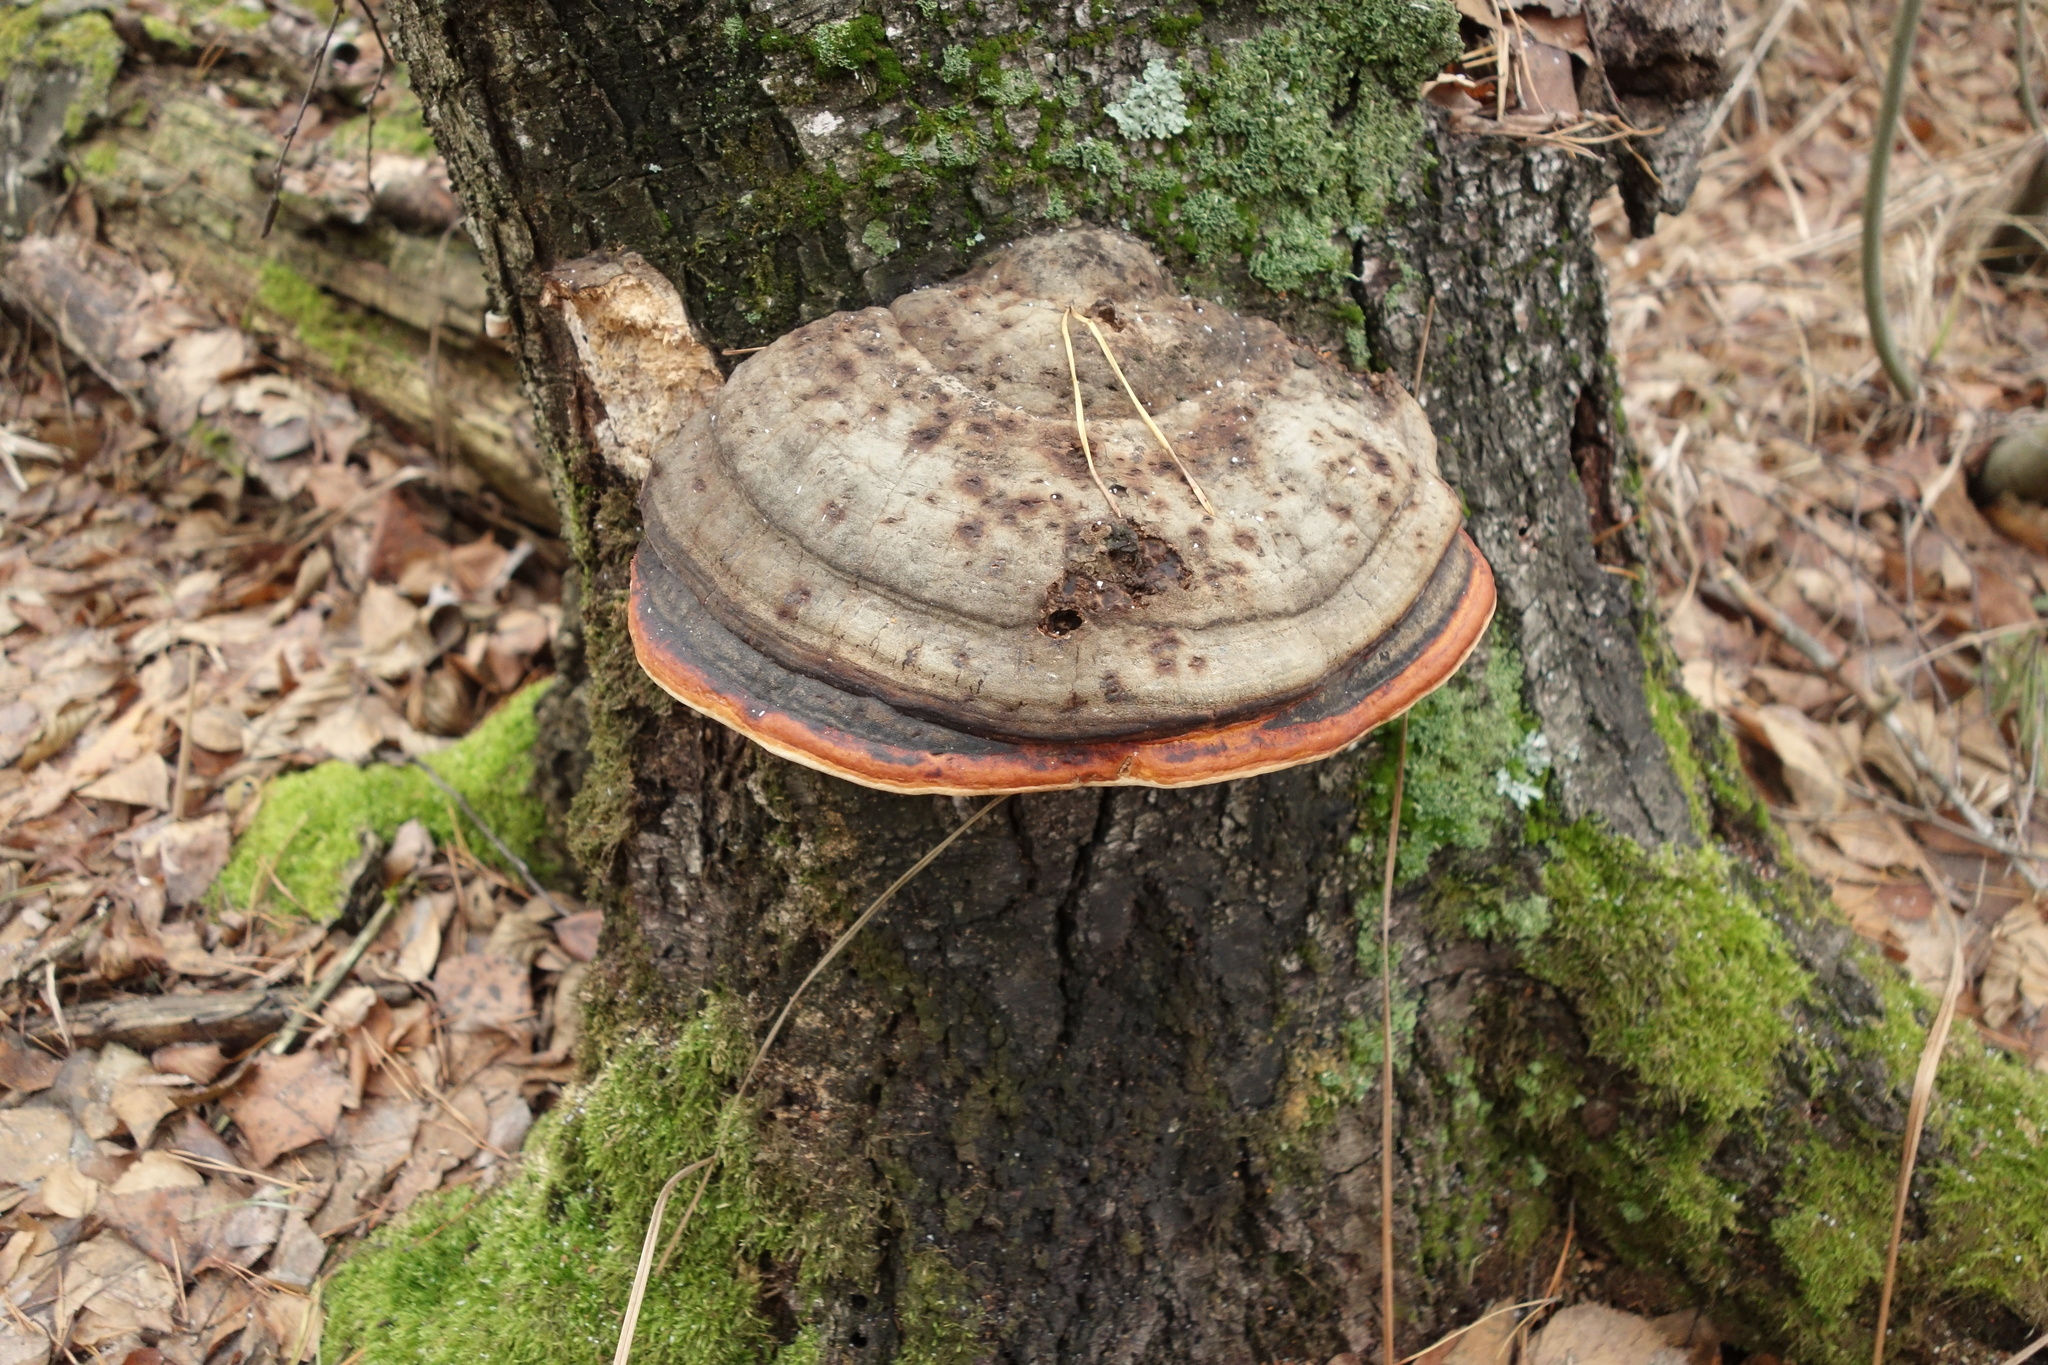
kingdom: Fungi
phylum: Basidiomycota
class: Agaricomycetes
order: Polyporales
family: Fomitopsidaceae
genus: Fomitopsis
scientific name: Fomitopsis pinicola
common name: Red-belted bracket
